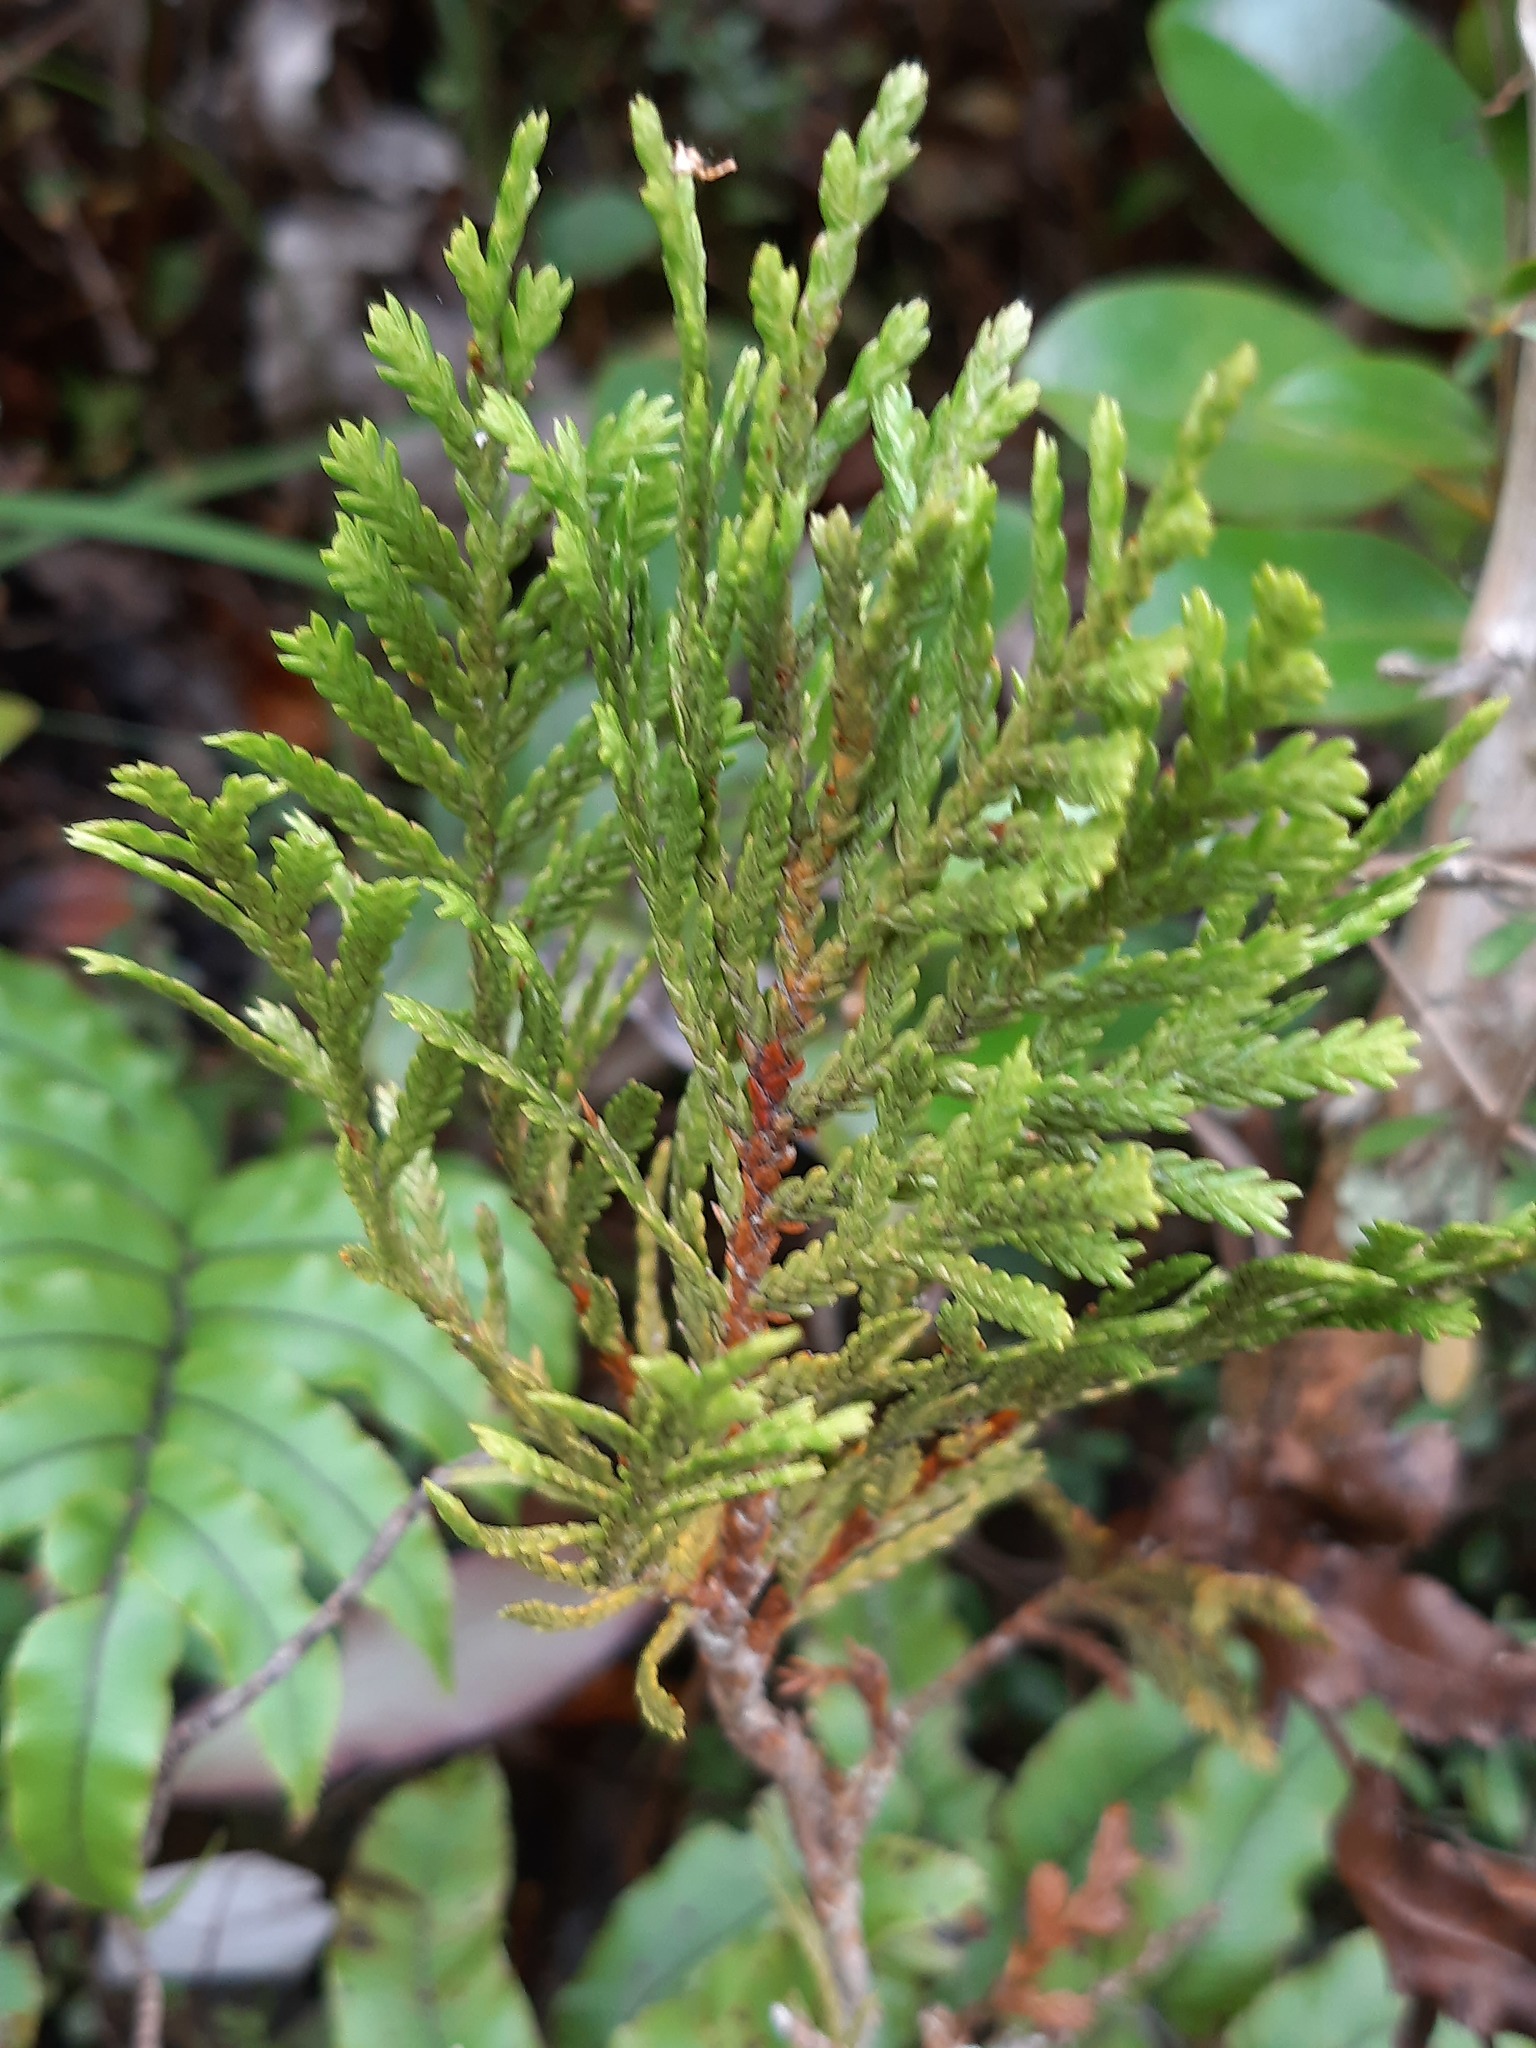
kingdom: Plantae
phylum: Tracheophyta
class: Pinopsida
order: Pinales
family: Cupressaceae
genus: Libocedrus
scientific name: Libocedrus bidwillii
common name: Cedar
